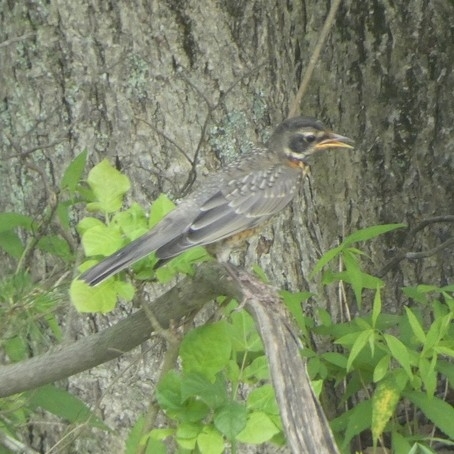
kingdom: Animalia
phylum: Chordata
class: Aves
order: Passeriformes
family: Turdidae
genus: Turdus
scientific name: Turdus migratorius
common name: American robin
